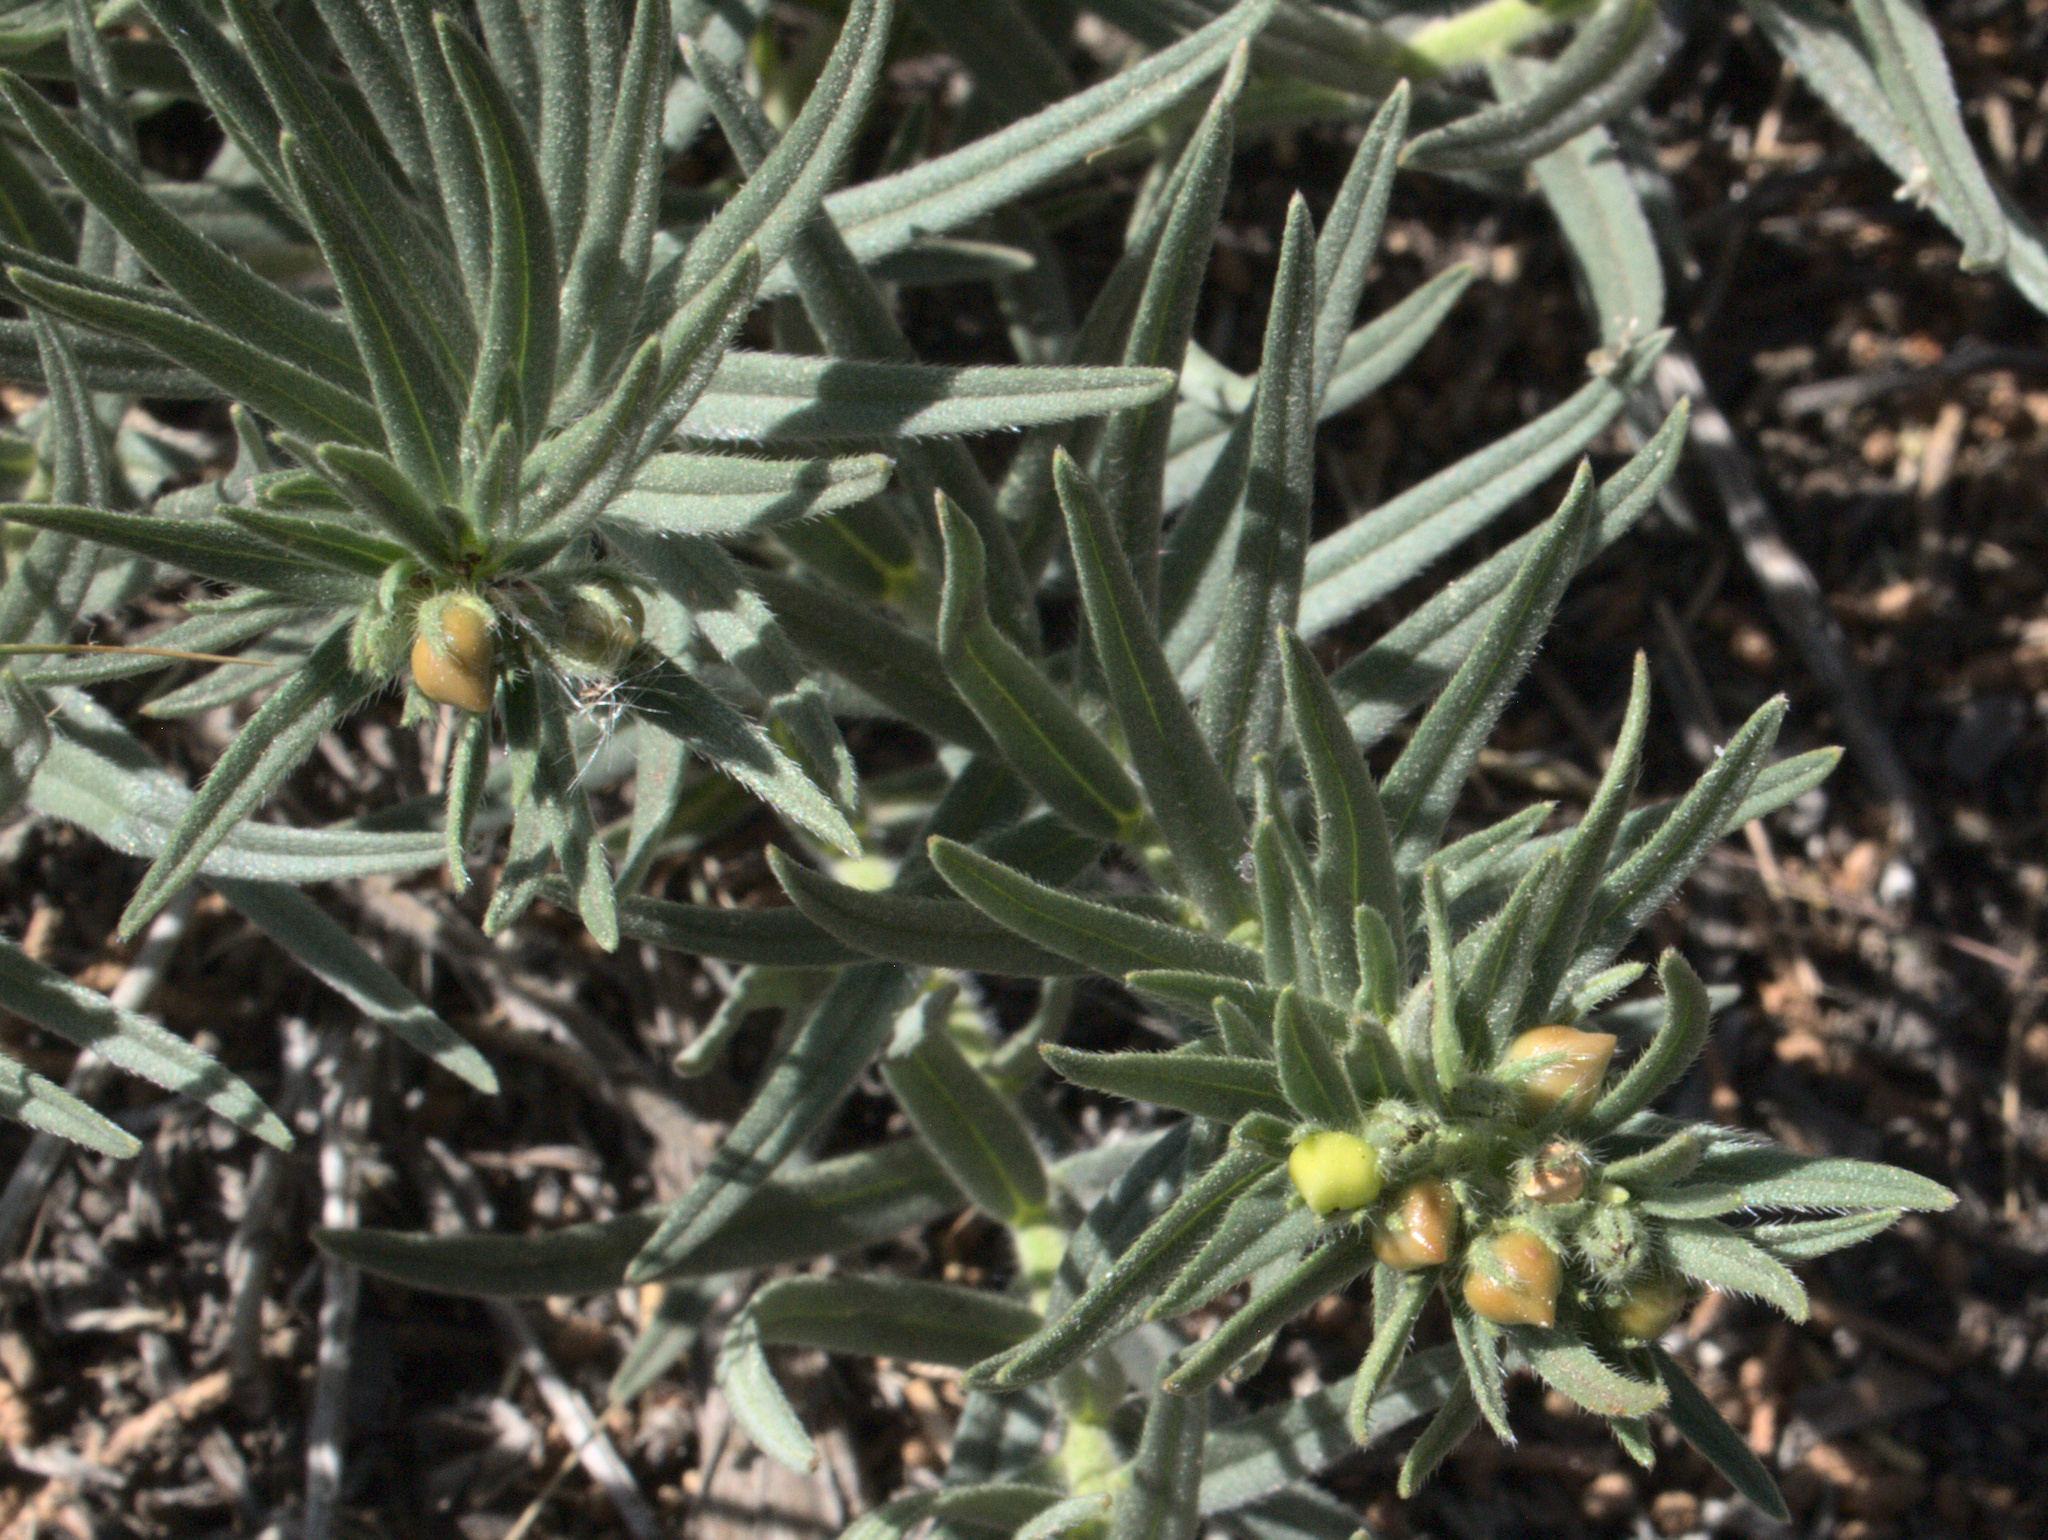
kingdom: Plantae
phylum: Tracheophyta
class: Magnoliopsida
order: Boraginales
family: Boraginaceae
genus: Lithospermum
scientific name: Lithospermum ruderale
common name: Western gromwell
